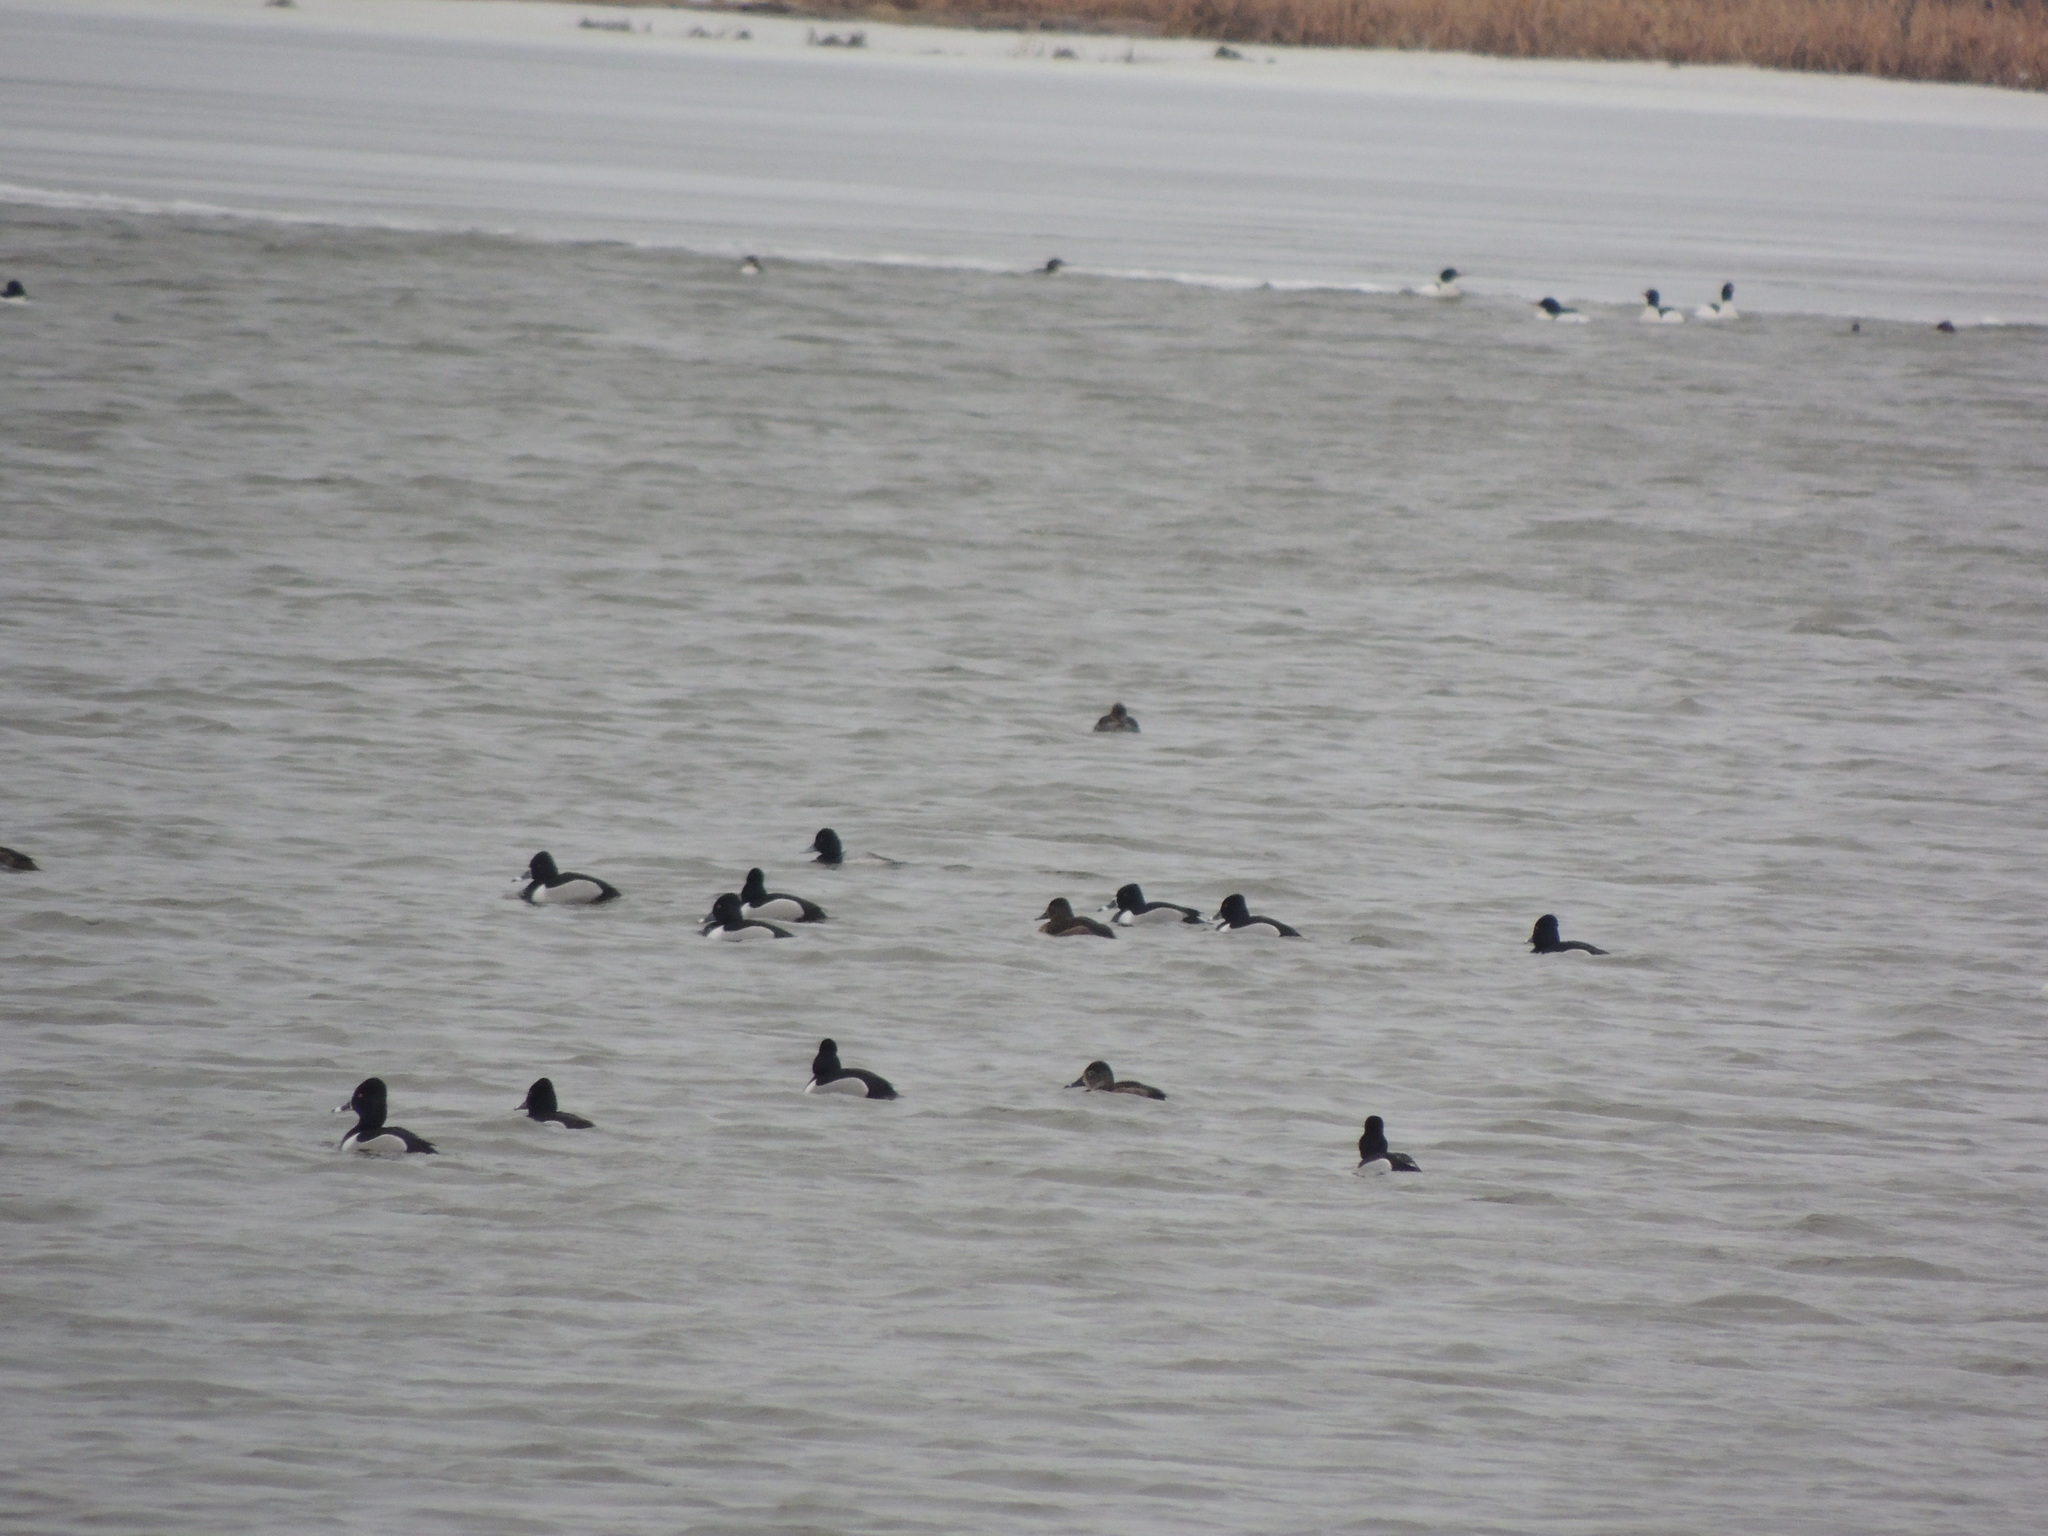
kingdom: Animalia
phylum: Chordata
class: Aves
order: Anseriformes
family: Anatidae
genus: Aythya
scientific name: Aythya collaris
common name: Ring-necked duck
